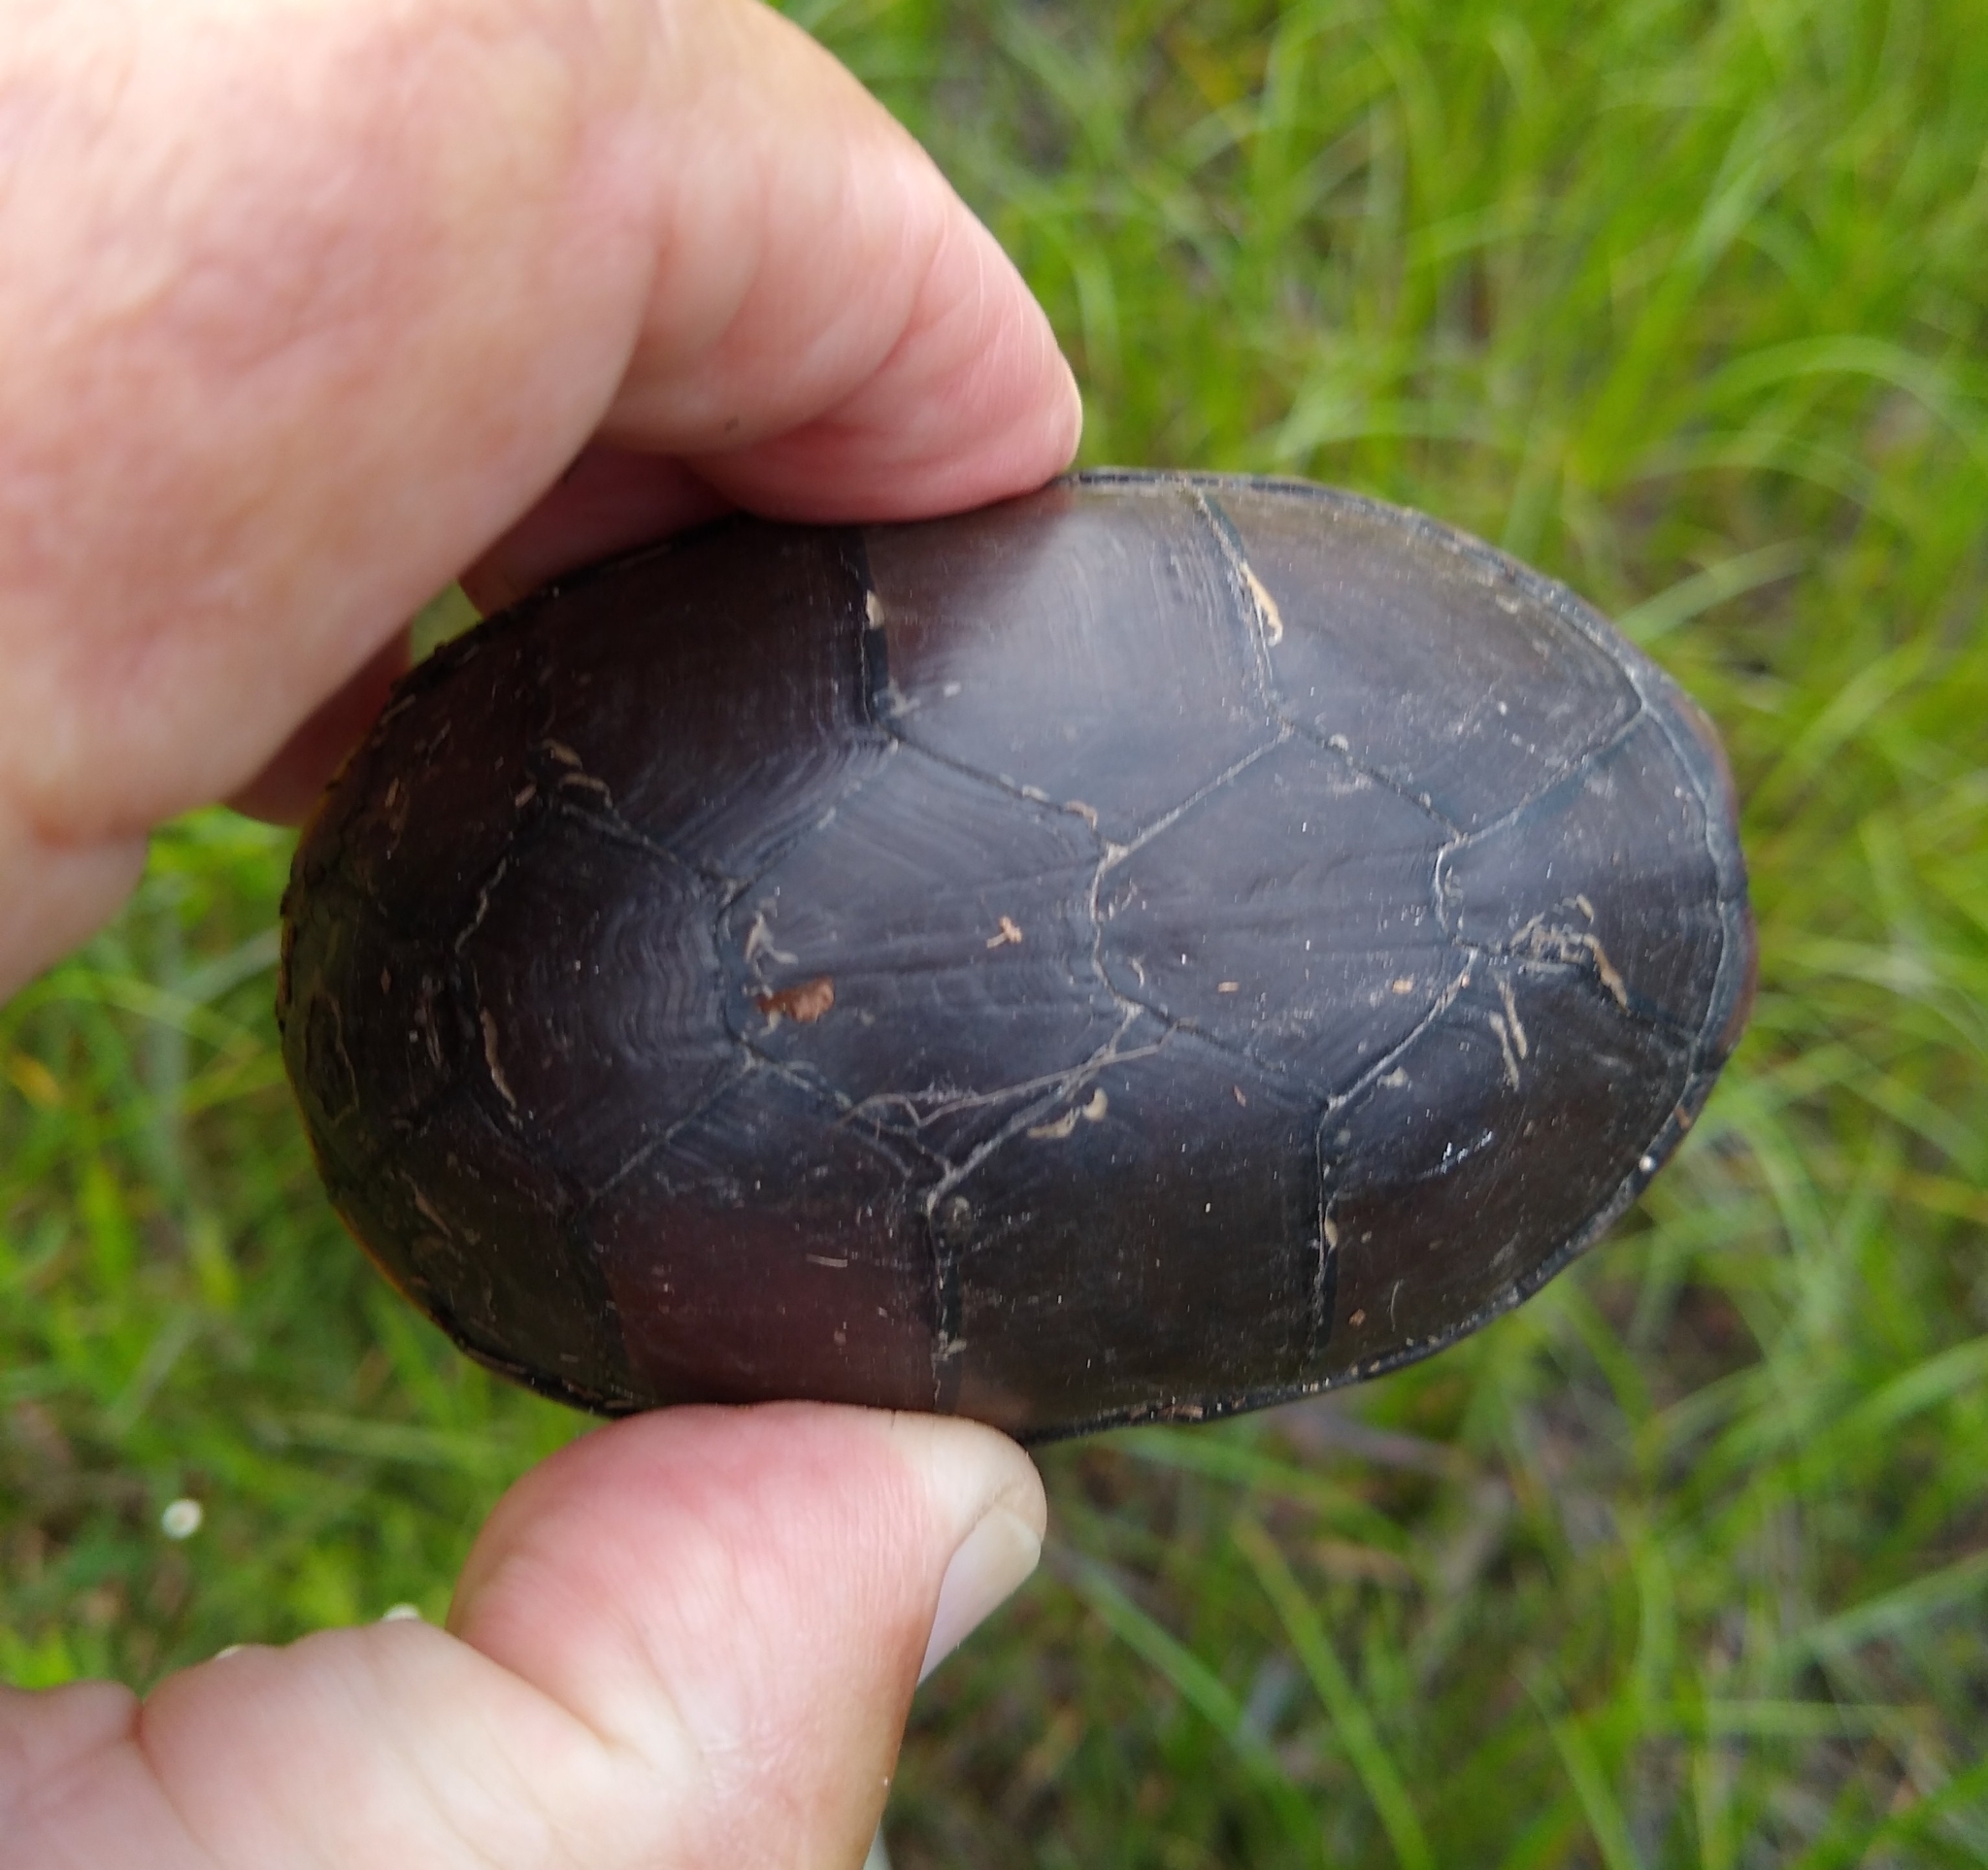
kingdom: Animalia
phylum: Chordata
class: Testudines
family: Kinosternidae
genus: Kinosternon
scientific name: Kinosternon subrubrum
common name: Eastern mud turtle
